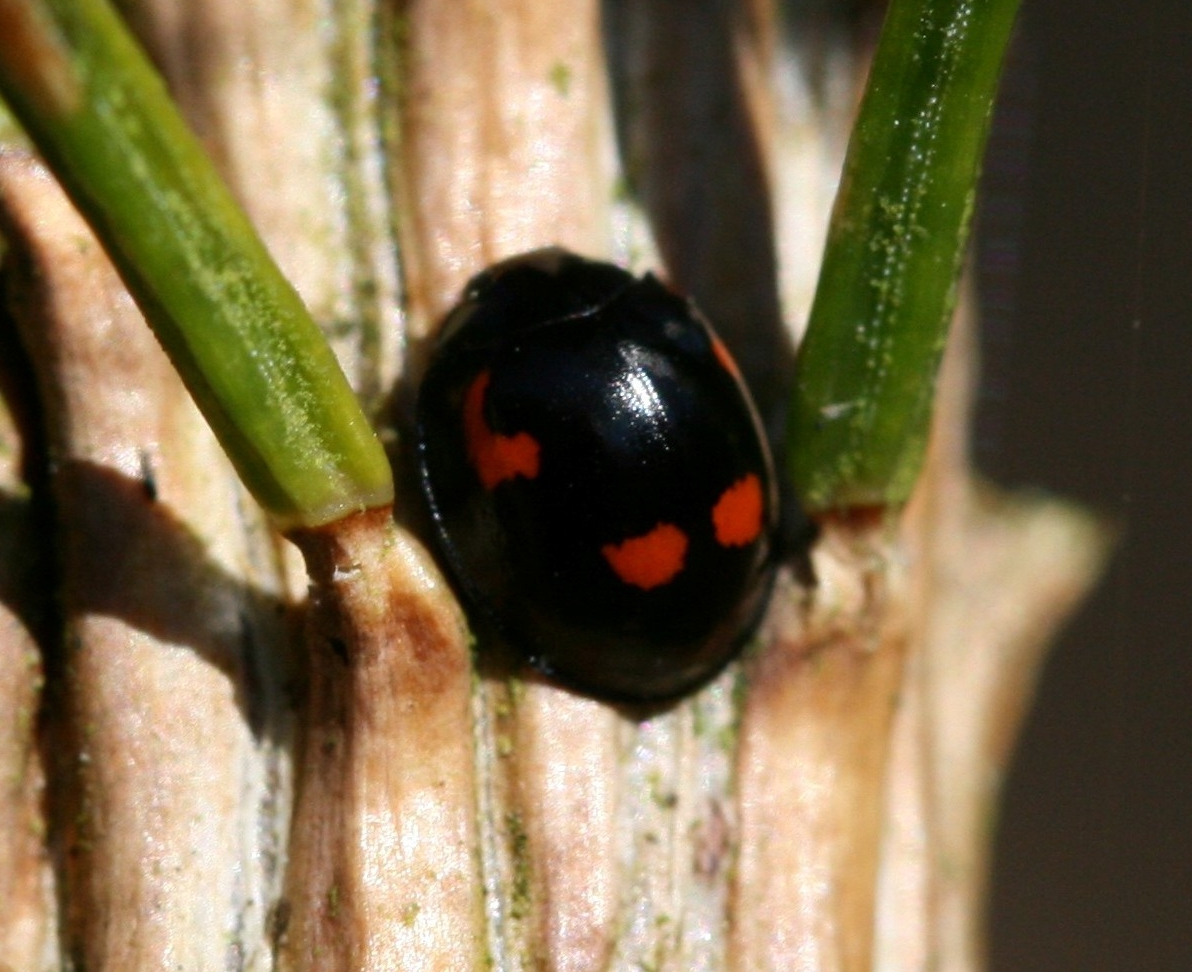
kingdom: Animalia
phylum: Arthropoda
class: Insecta
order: Coleoptera
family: Coccinellidae
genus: Brumus
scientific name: Brumus quadripustulatus
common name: Ladybird beetle
